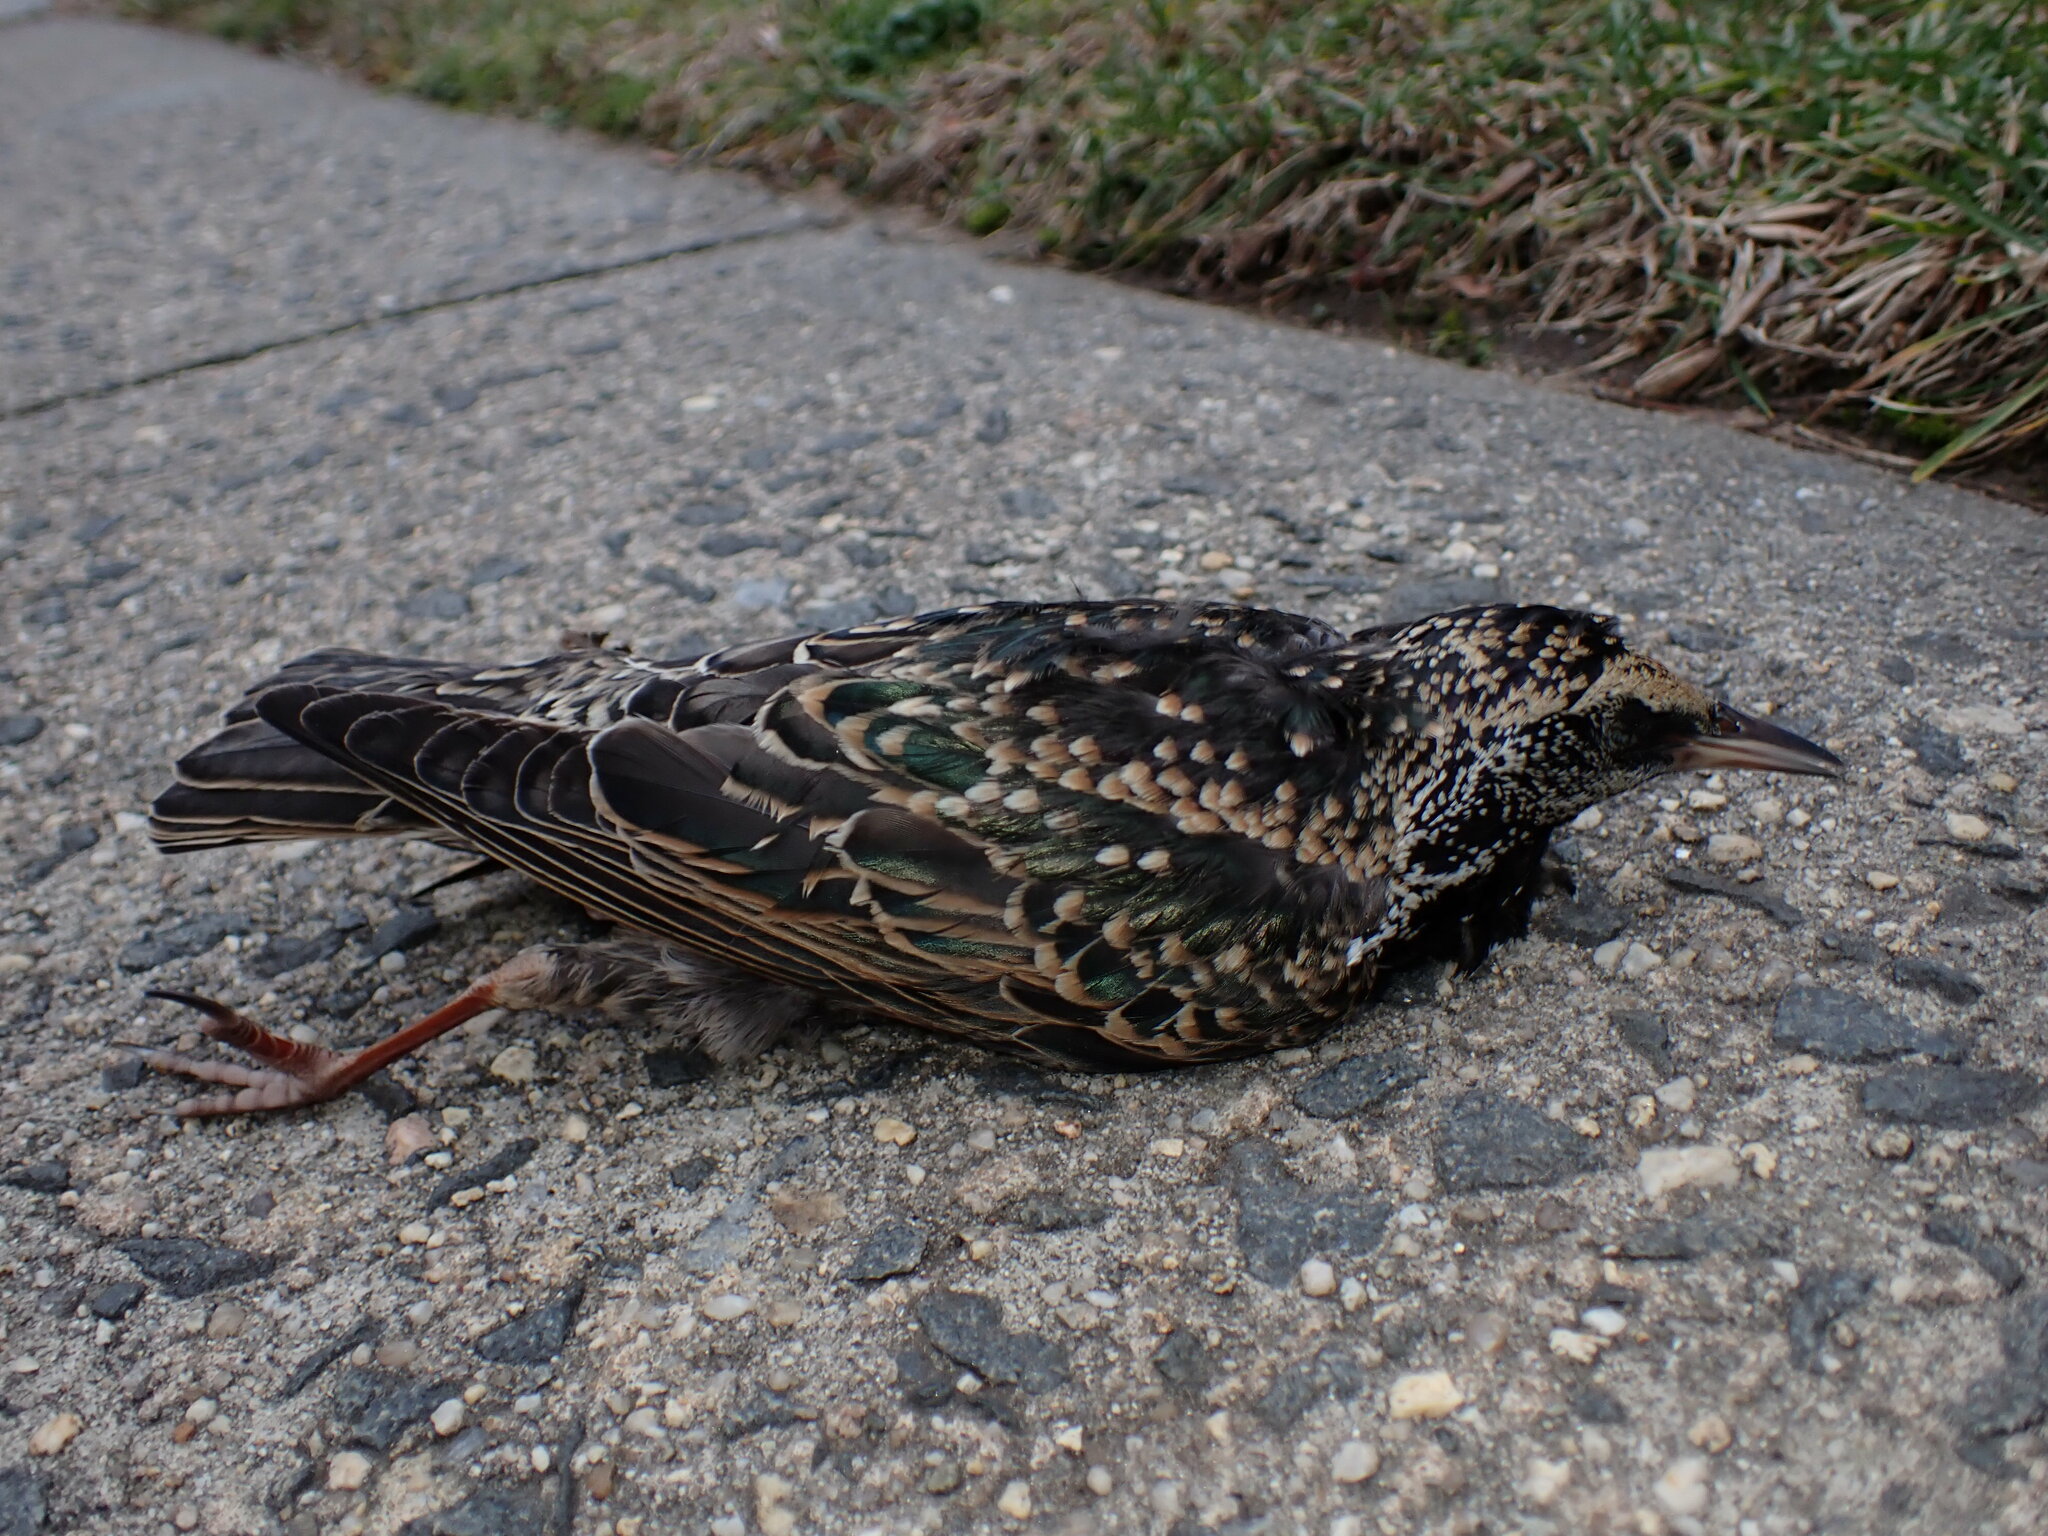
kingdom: Animalia
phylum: Chordata
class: Aves
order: Passeriformes
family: Sturnidae
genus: Sturnus
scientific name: Sturnus vulgaris
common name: Common starling
